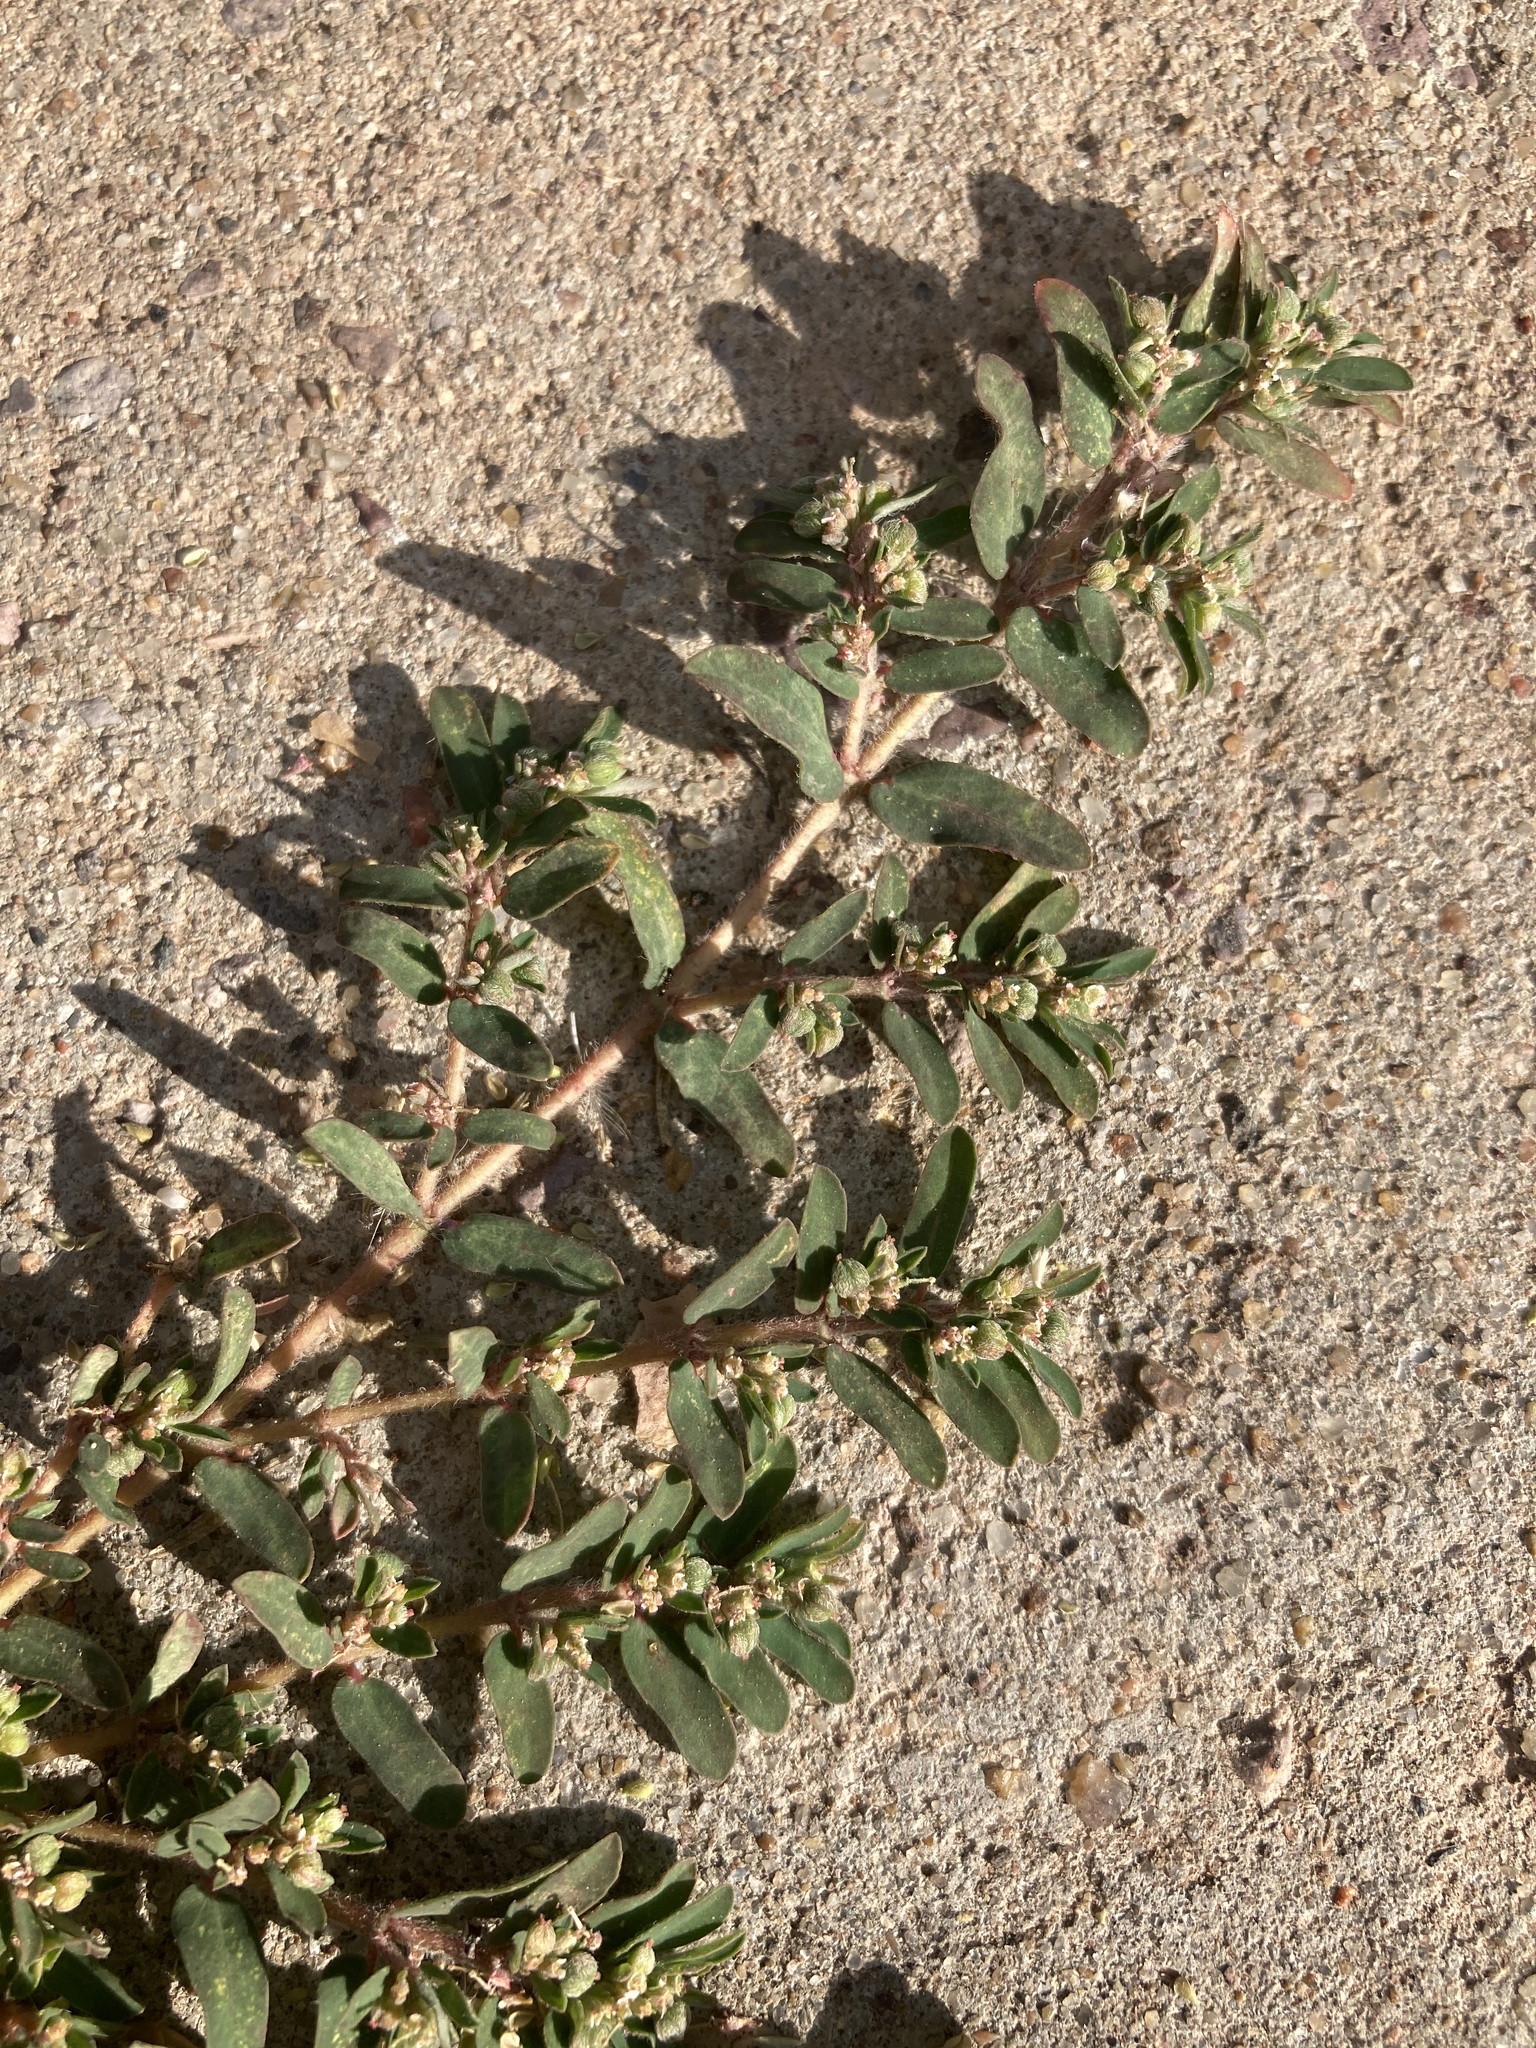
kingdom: Plantae
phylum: Tracheophyta
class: Magnoliopsida
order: Malpighiales
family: Euphorbiaceae
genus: Euphorbia
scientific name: Euphorbia maculata
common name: Spotted spurge
